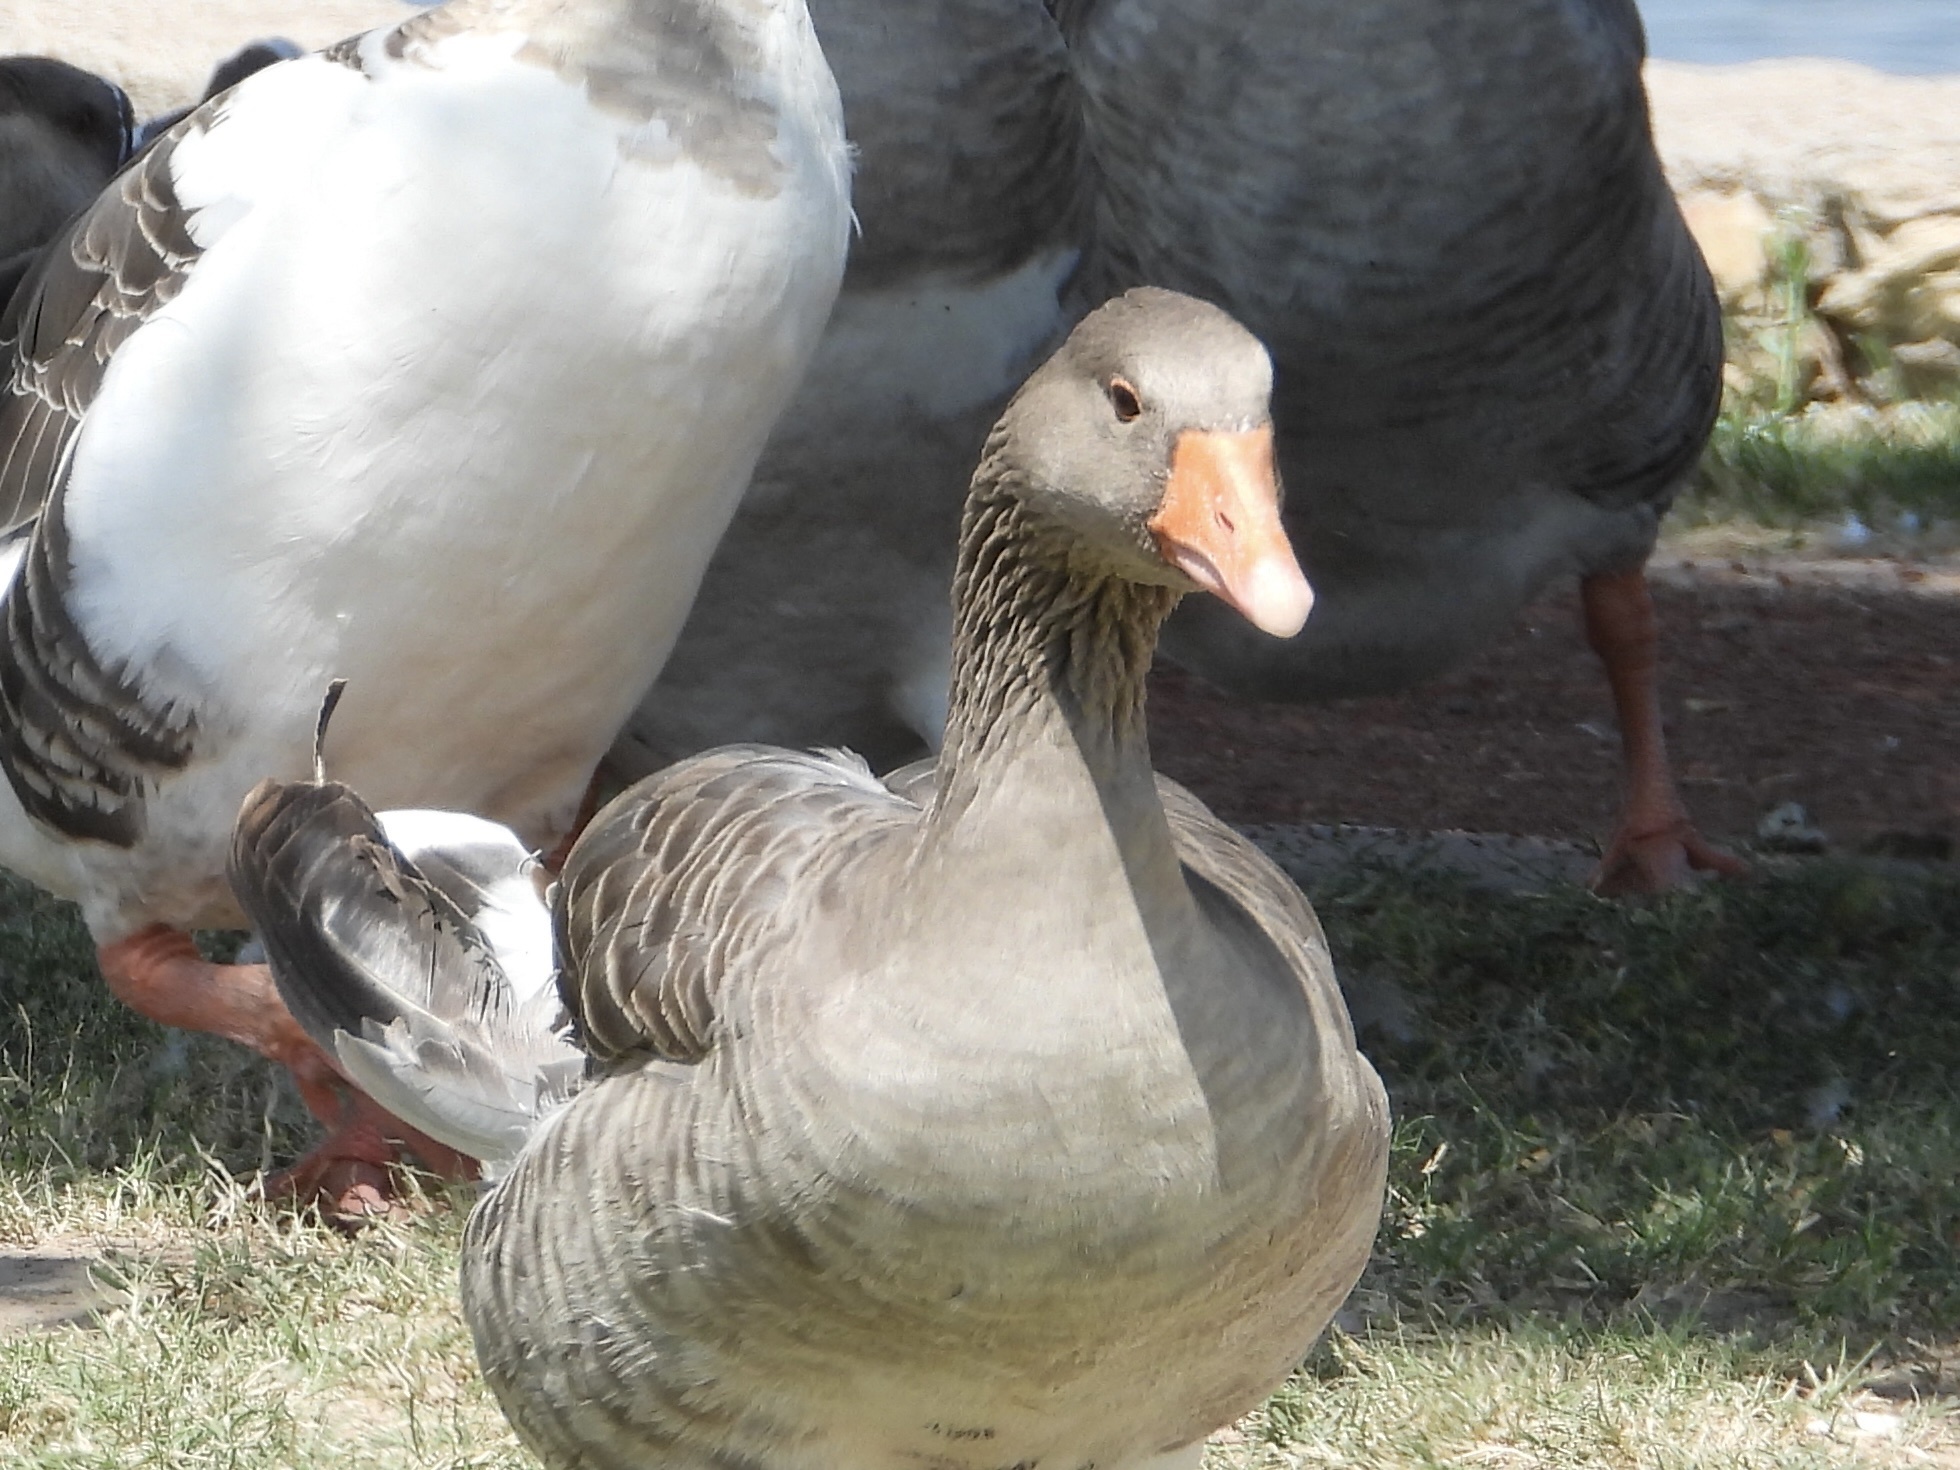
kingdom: Animalia
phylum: Chordata
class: Aves
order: Anseriformes
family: Anatidae
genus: Anser
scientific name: Anser anser
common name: Greylag goose
